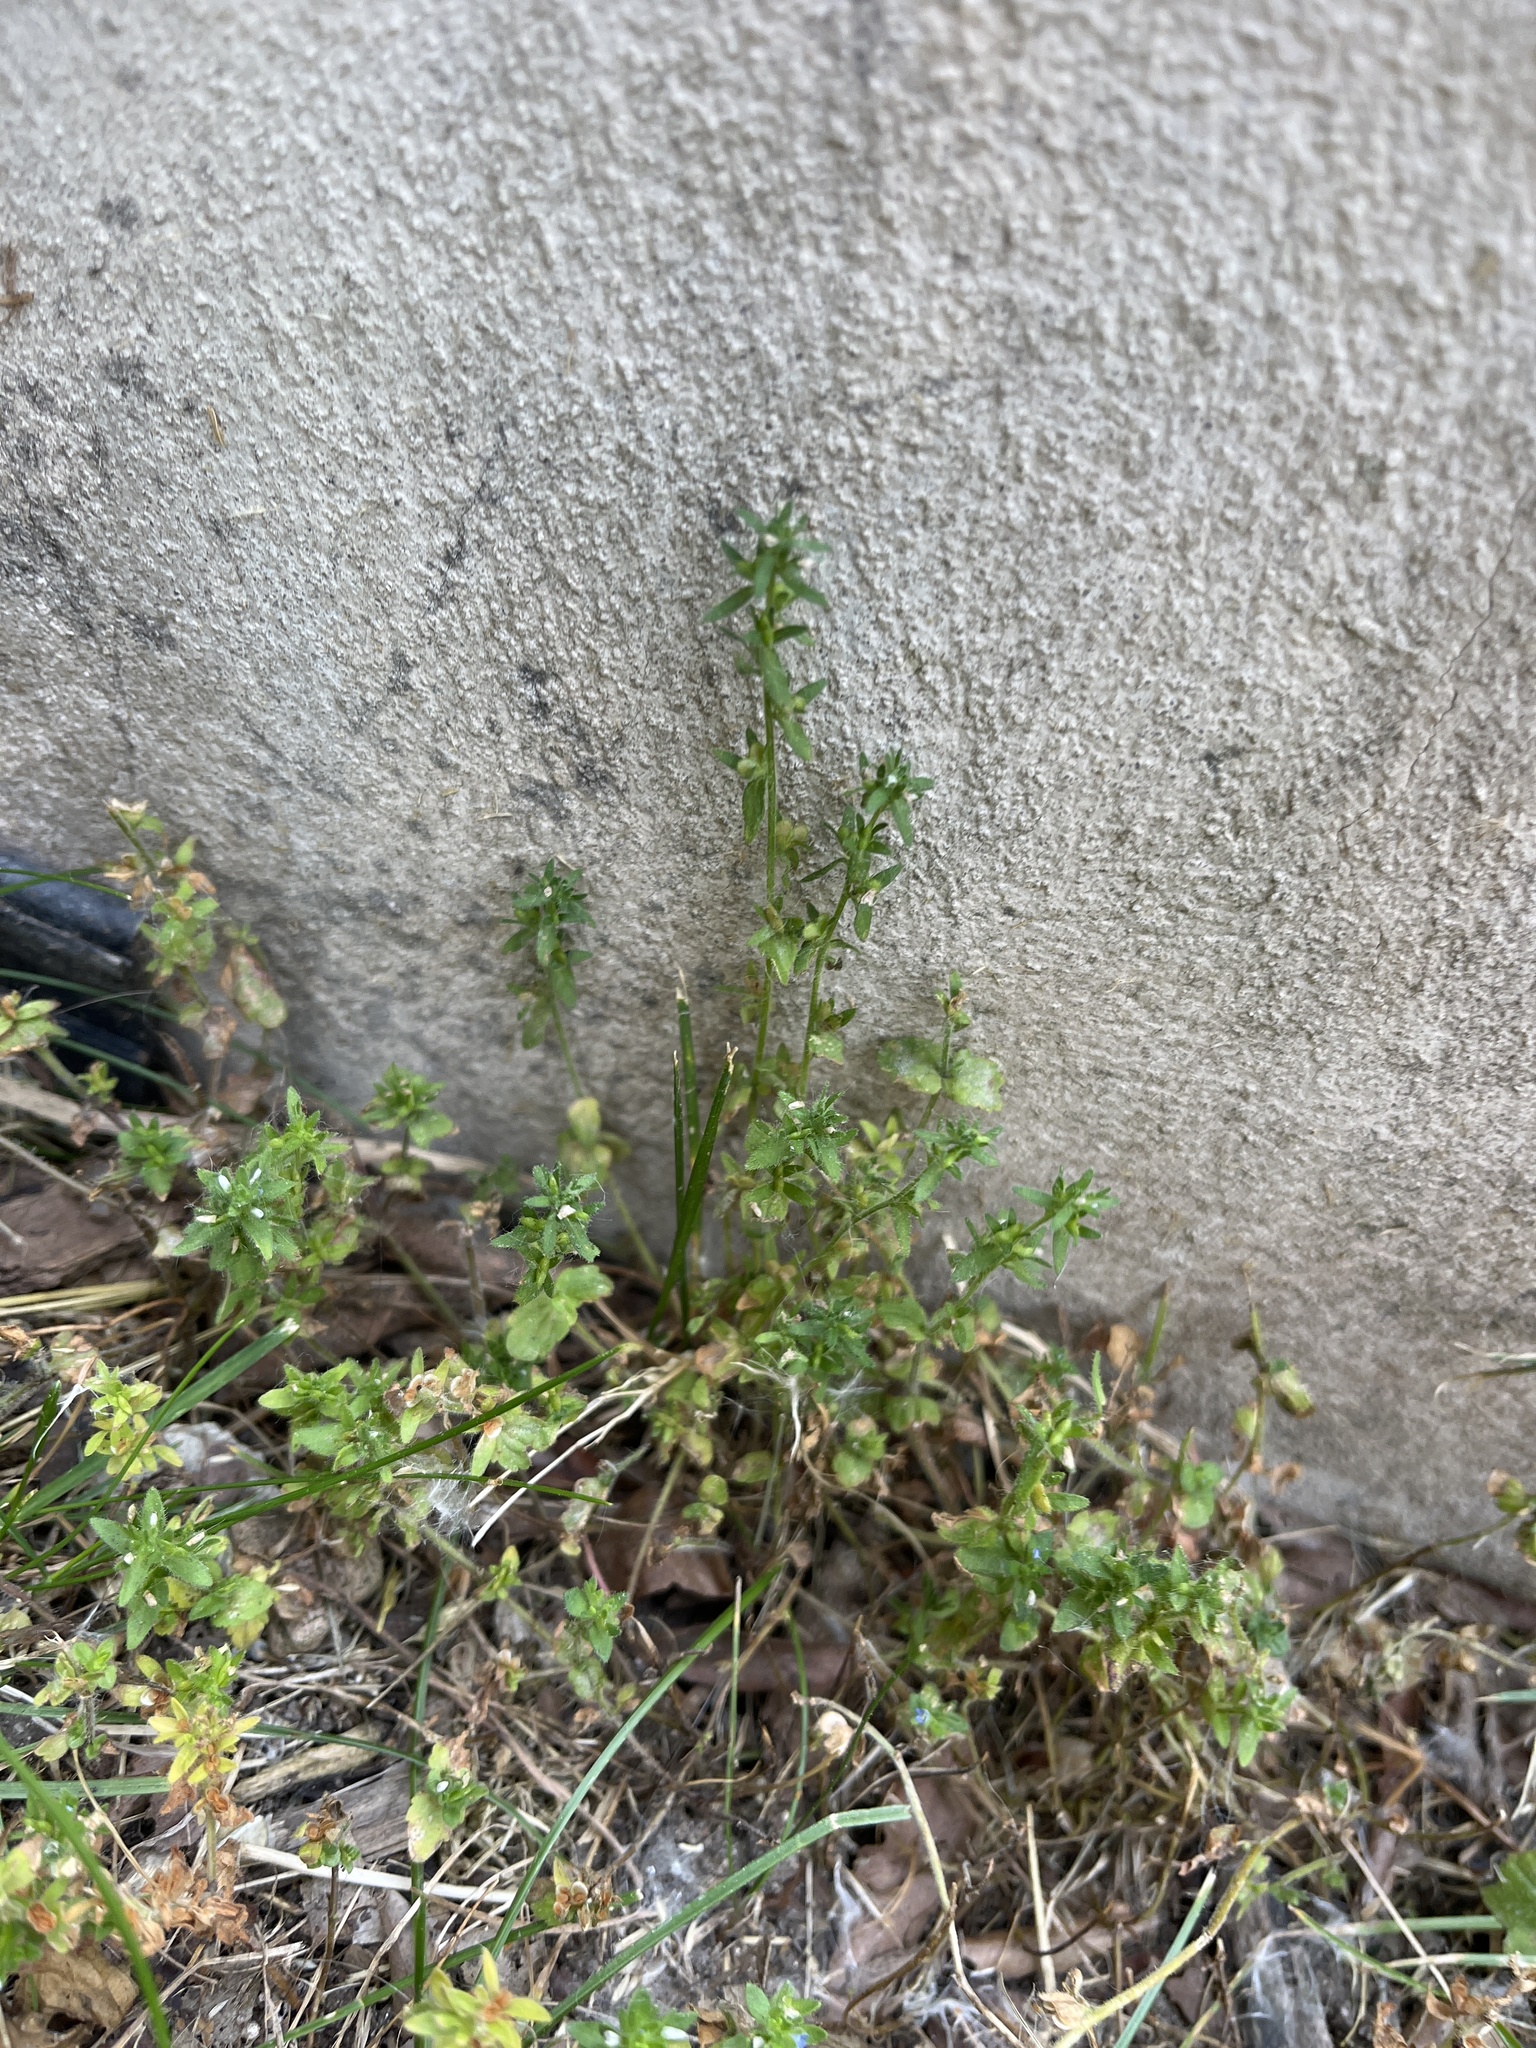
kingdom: Plantae
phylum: Tracheophyta
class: Magnoliopsida
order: Lamiales
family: Plantaginaceae
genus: Veronica
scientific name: Veronica arvensis
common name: Corn speedwell
